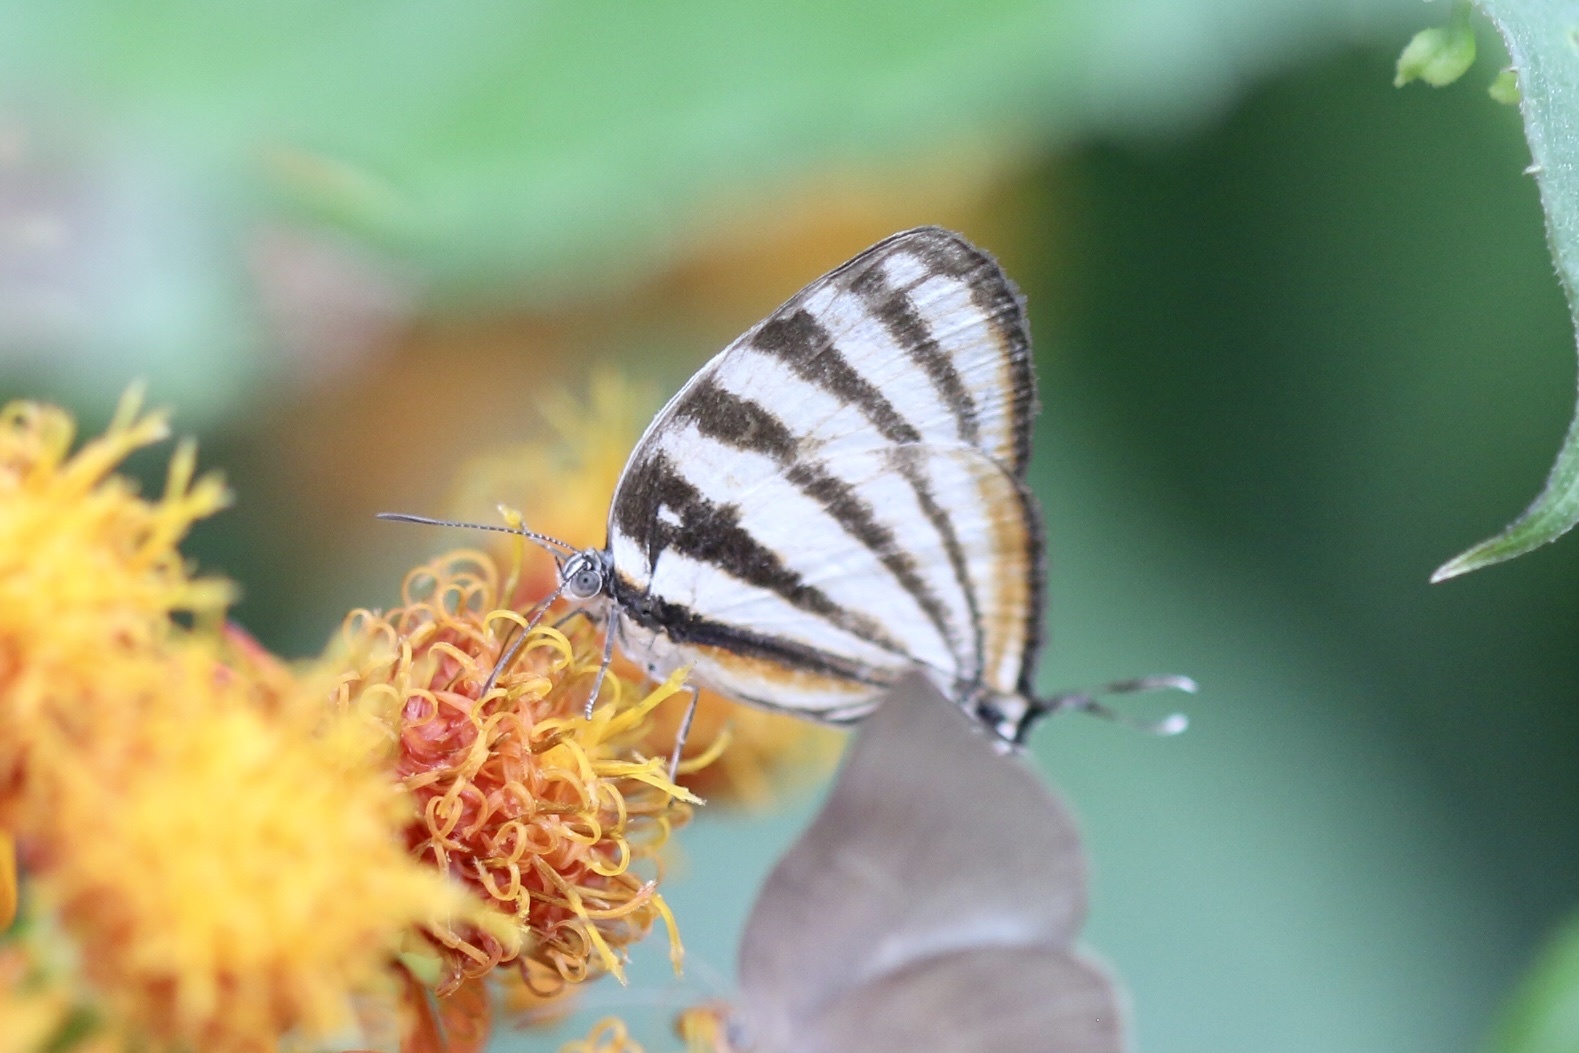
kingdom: Animalia
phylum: Arthropoda
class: Insecta
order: Lepidoptera
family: Lycaenidae
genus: Arawacus
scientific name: Arawacus lincoides
